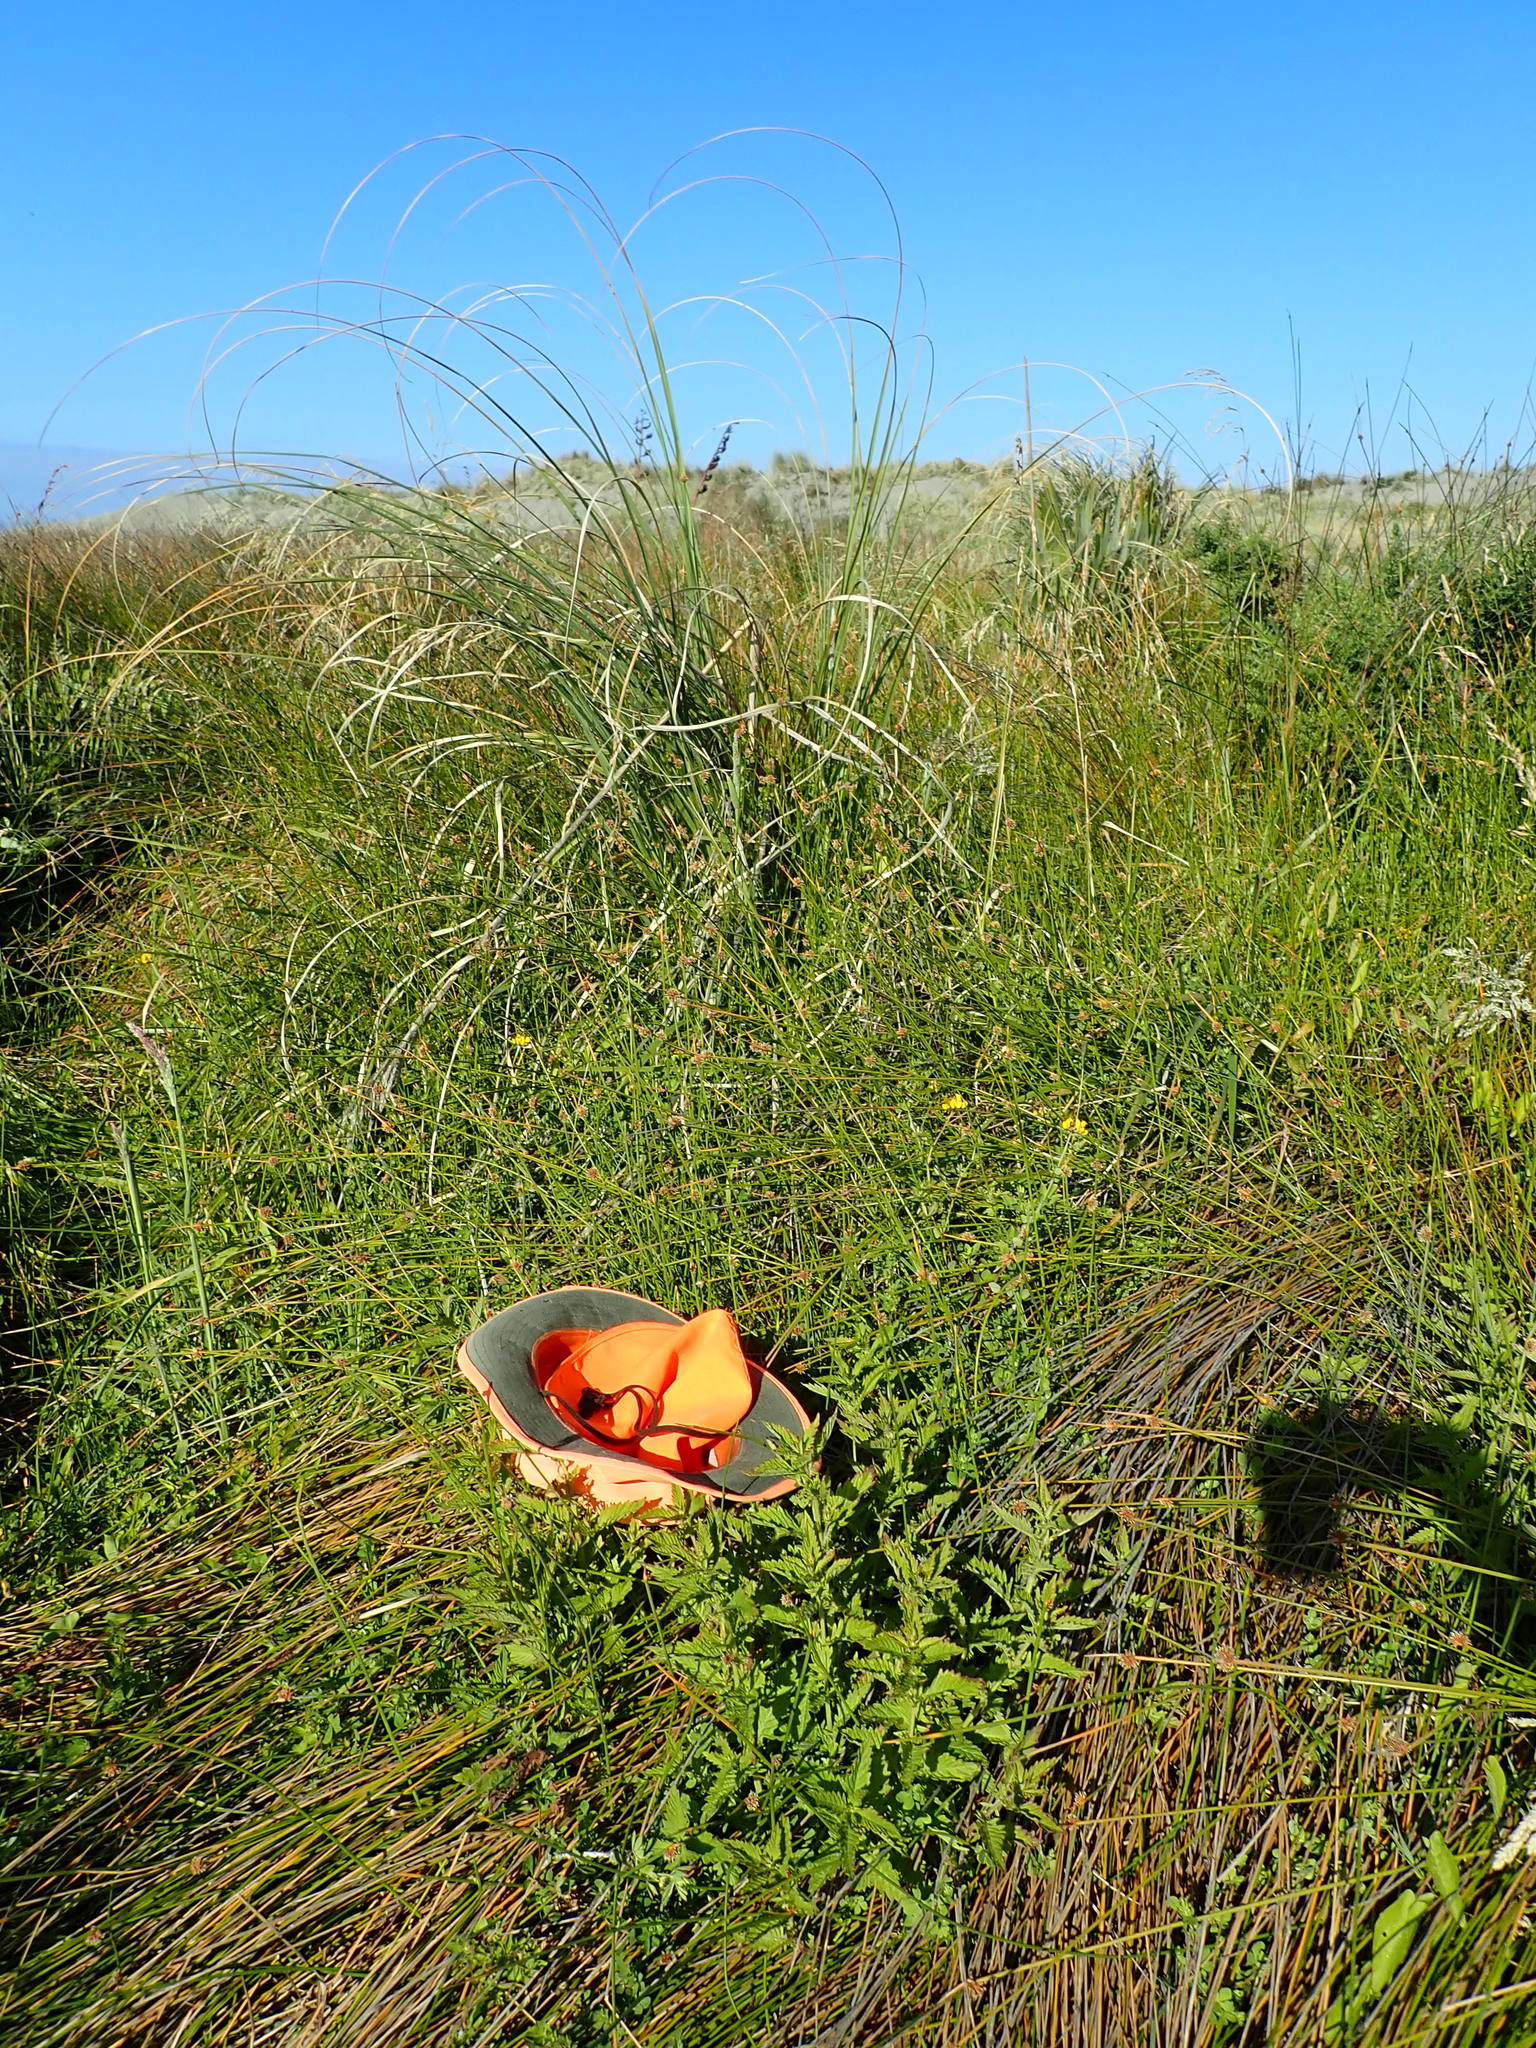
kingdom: Plantae
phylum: Tracheophyta
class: Magnoliopsida
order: Lamiales
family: Lamiaceae
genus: Lycopus
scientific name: Lycopus europaeus
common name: European bugleweed
